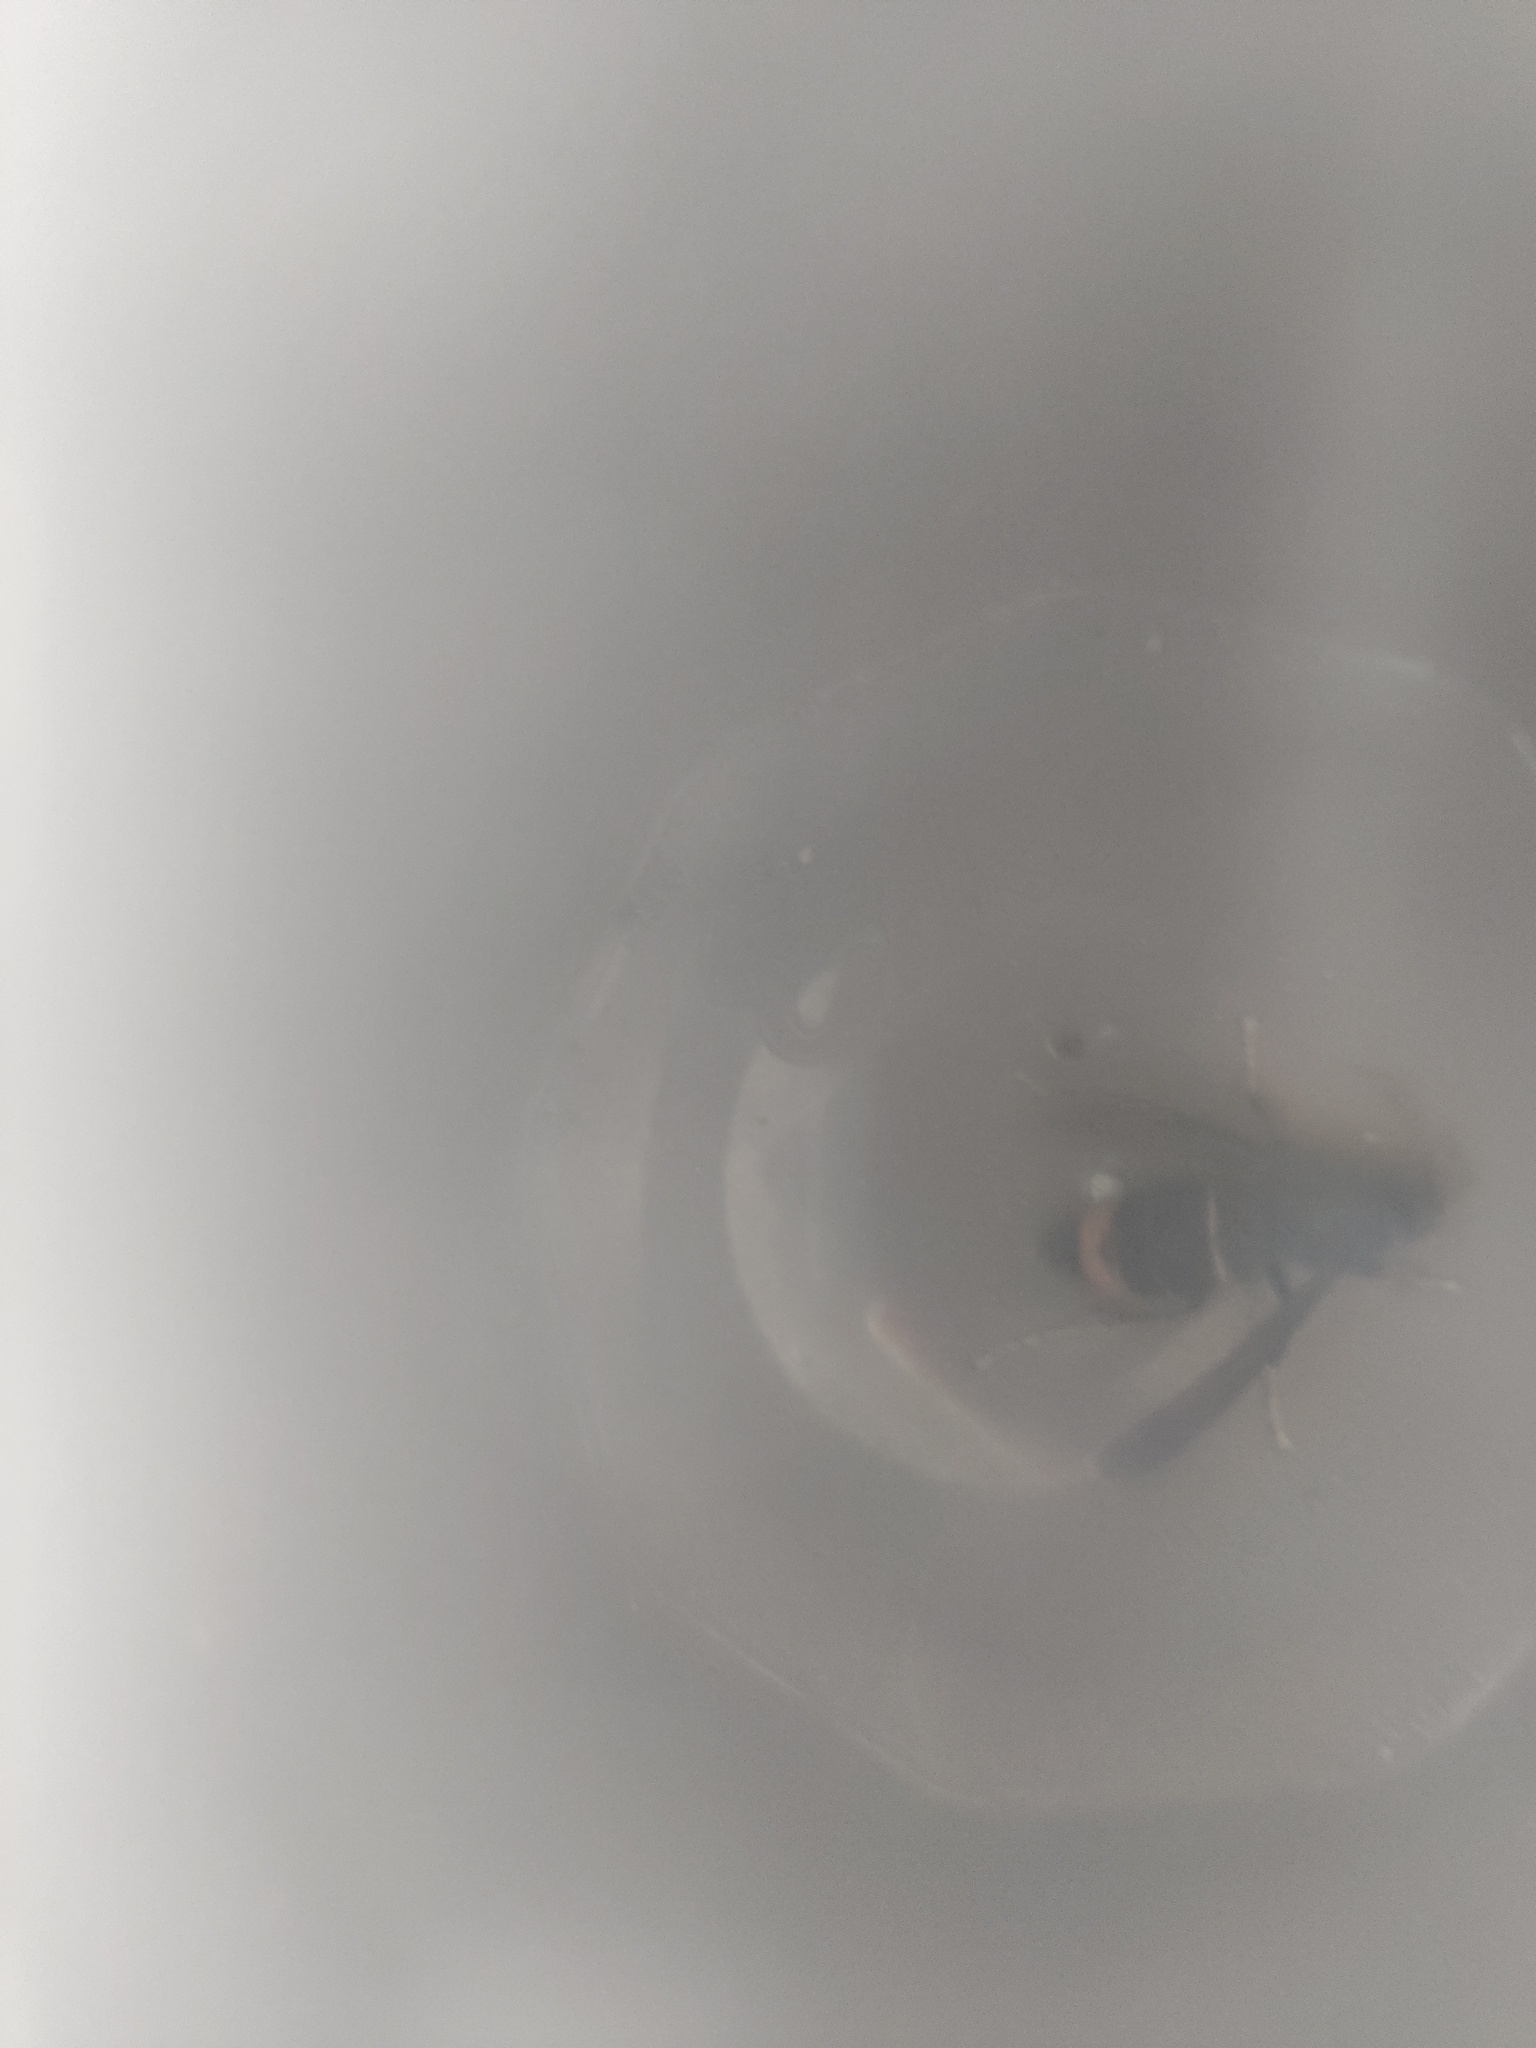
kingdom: Animalia
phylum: Arthropoda
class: Insecta
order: Hymenoptera
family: Vespidae
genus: Vespa
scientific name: Vespa velutina
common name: Asian hornet
